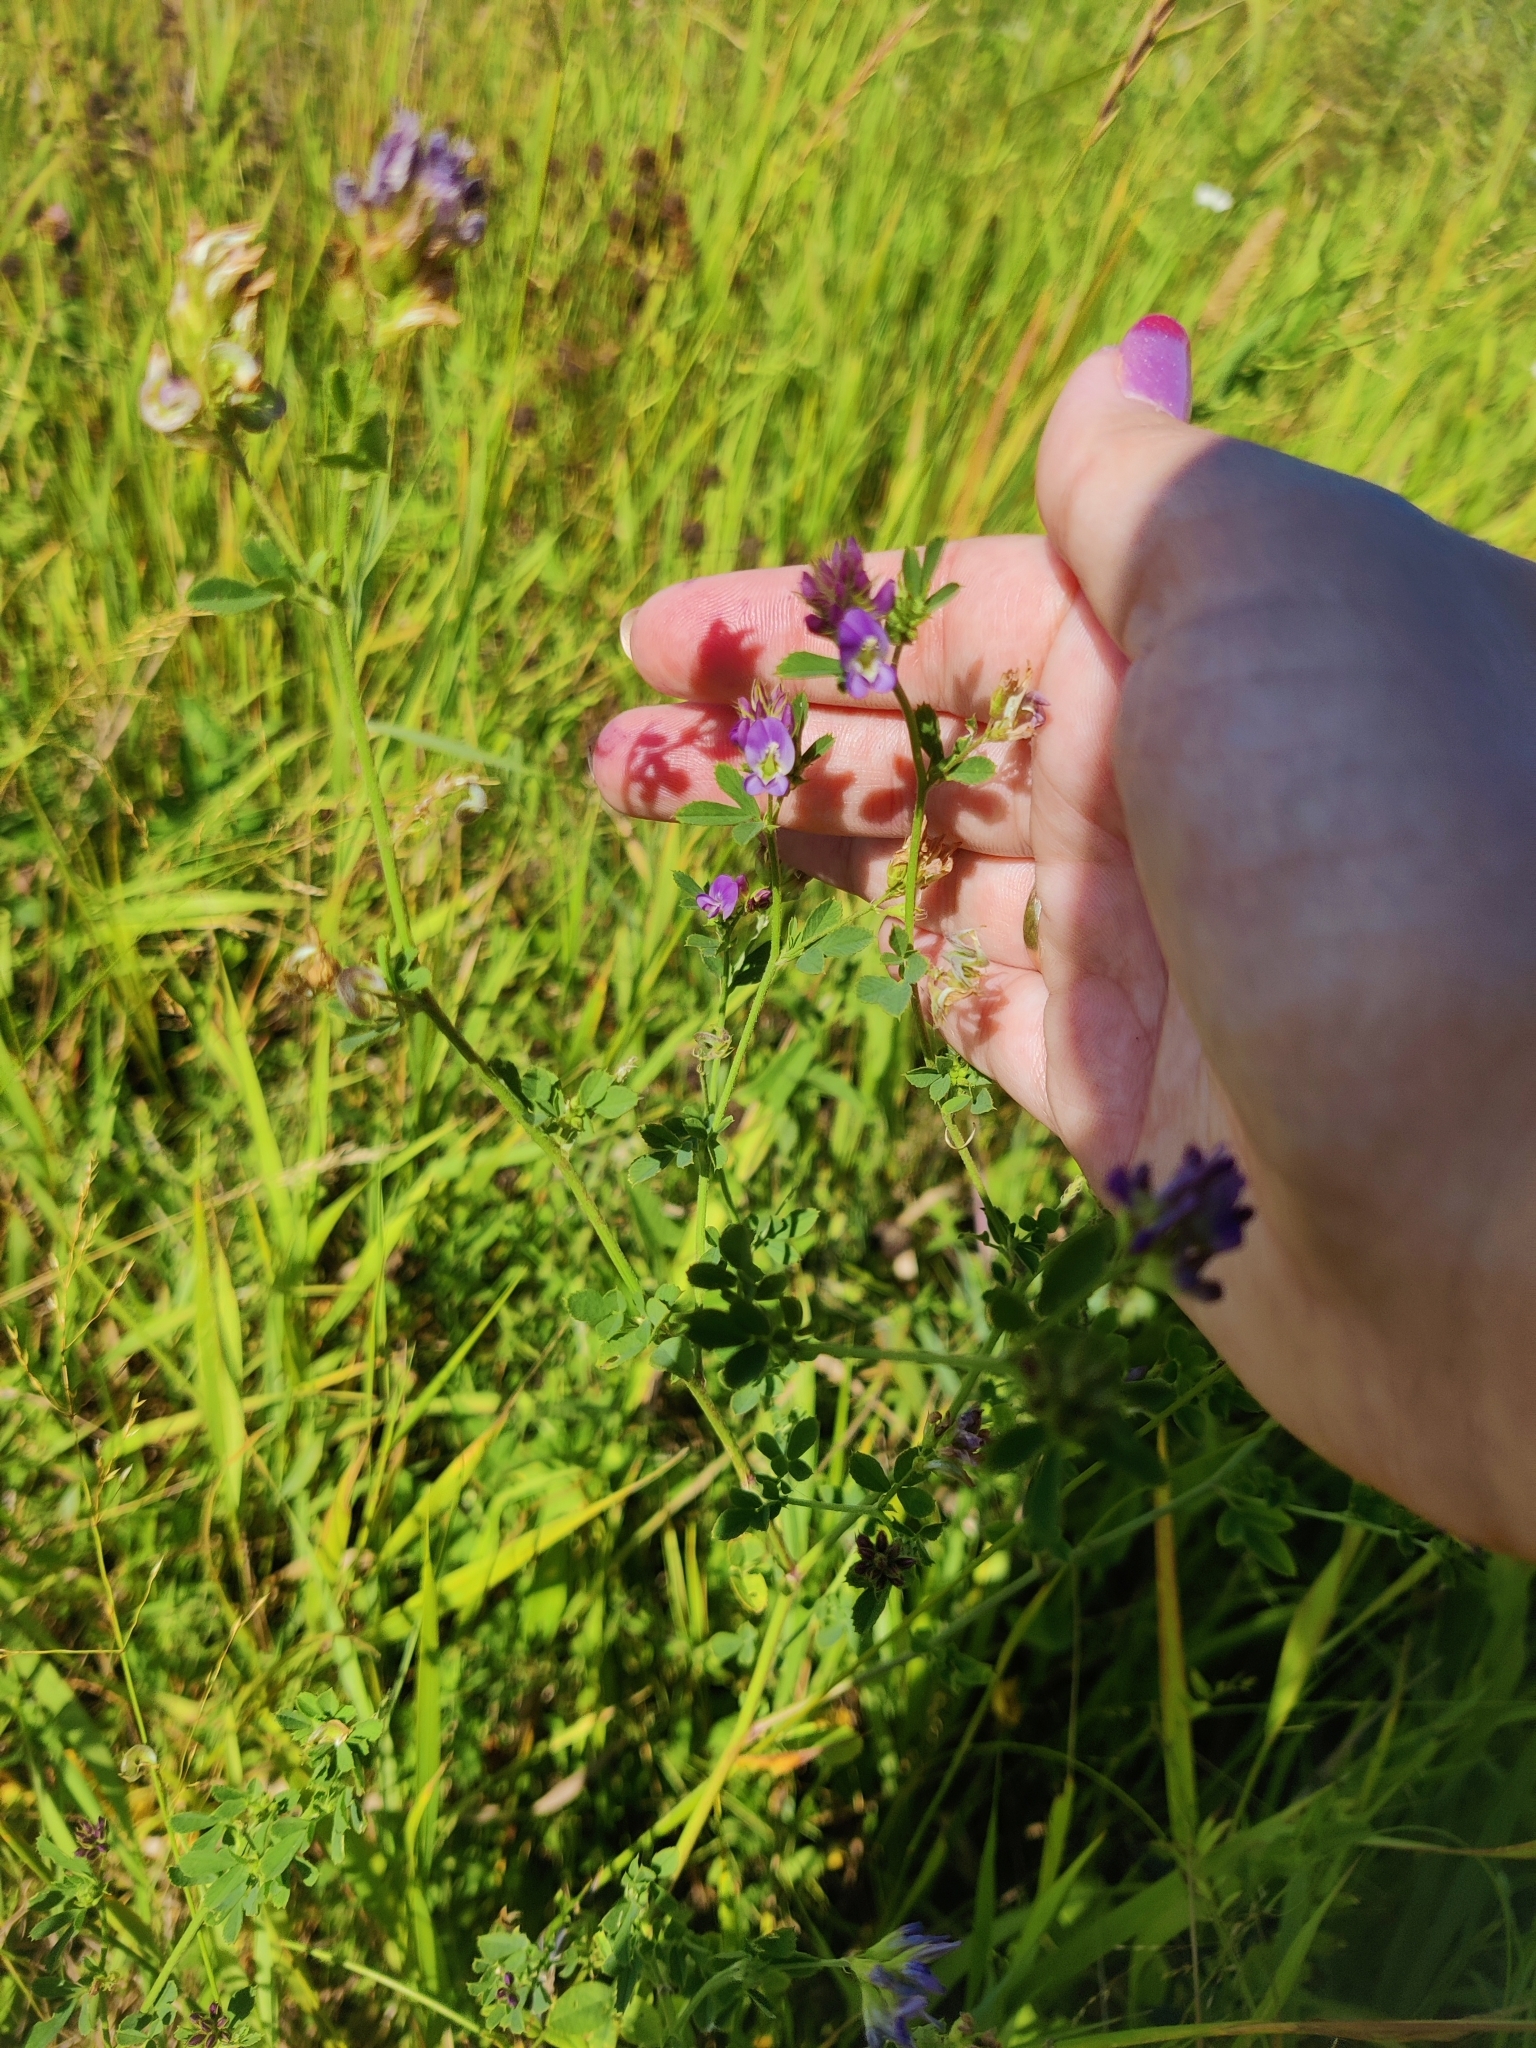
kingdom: Plantae
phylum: Tracheophyta
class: Magnoliopsida
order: Fabales
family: Fabaceae
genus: Medicago
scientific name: Medicago sativa
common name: Alfalfa
